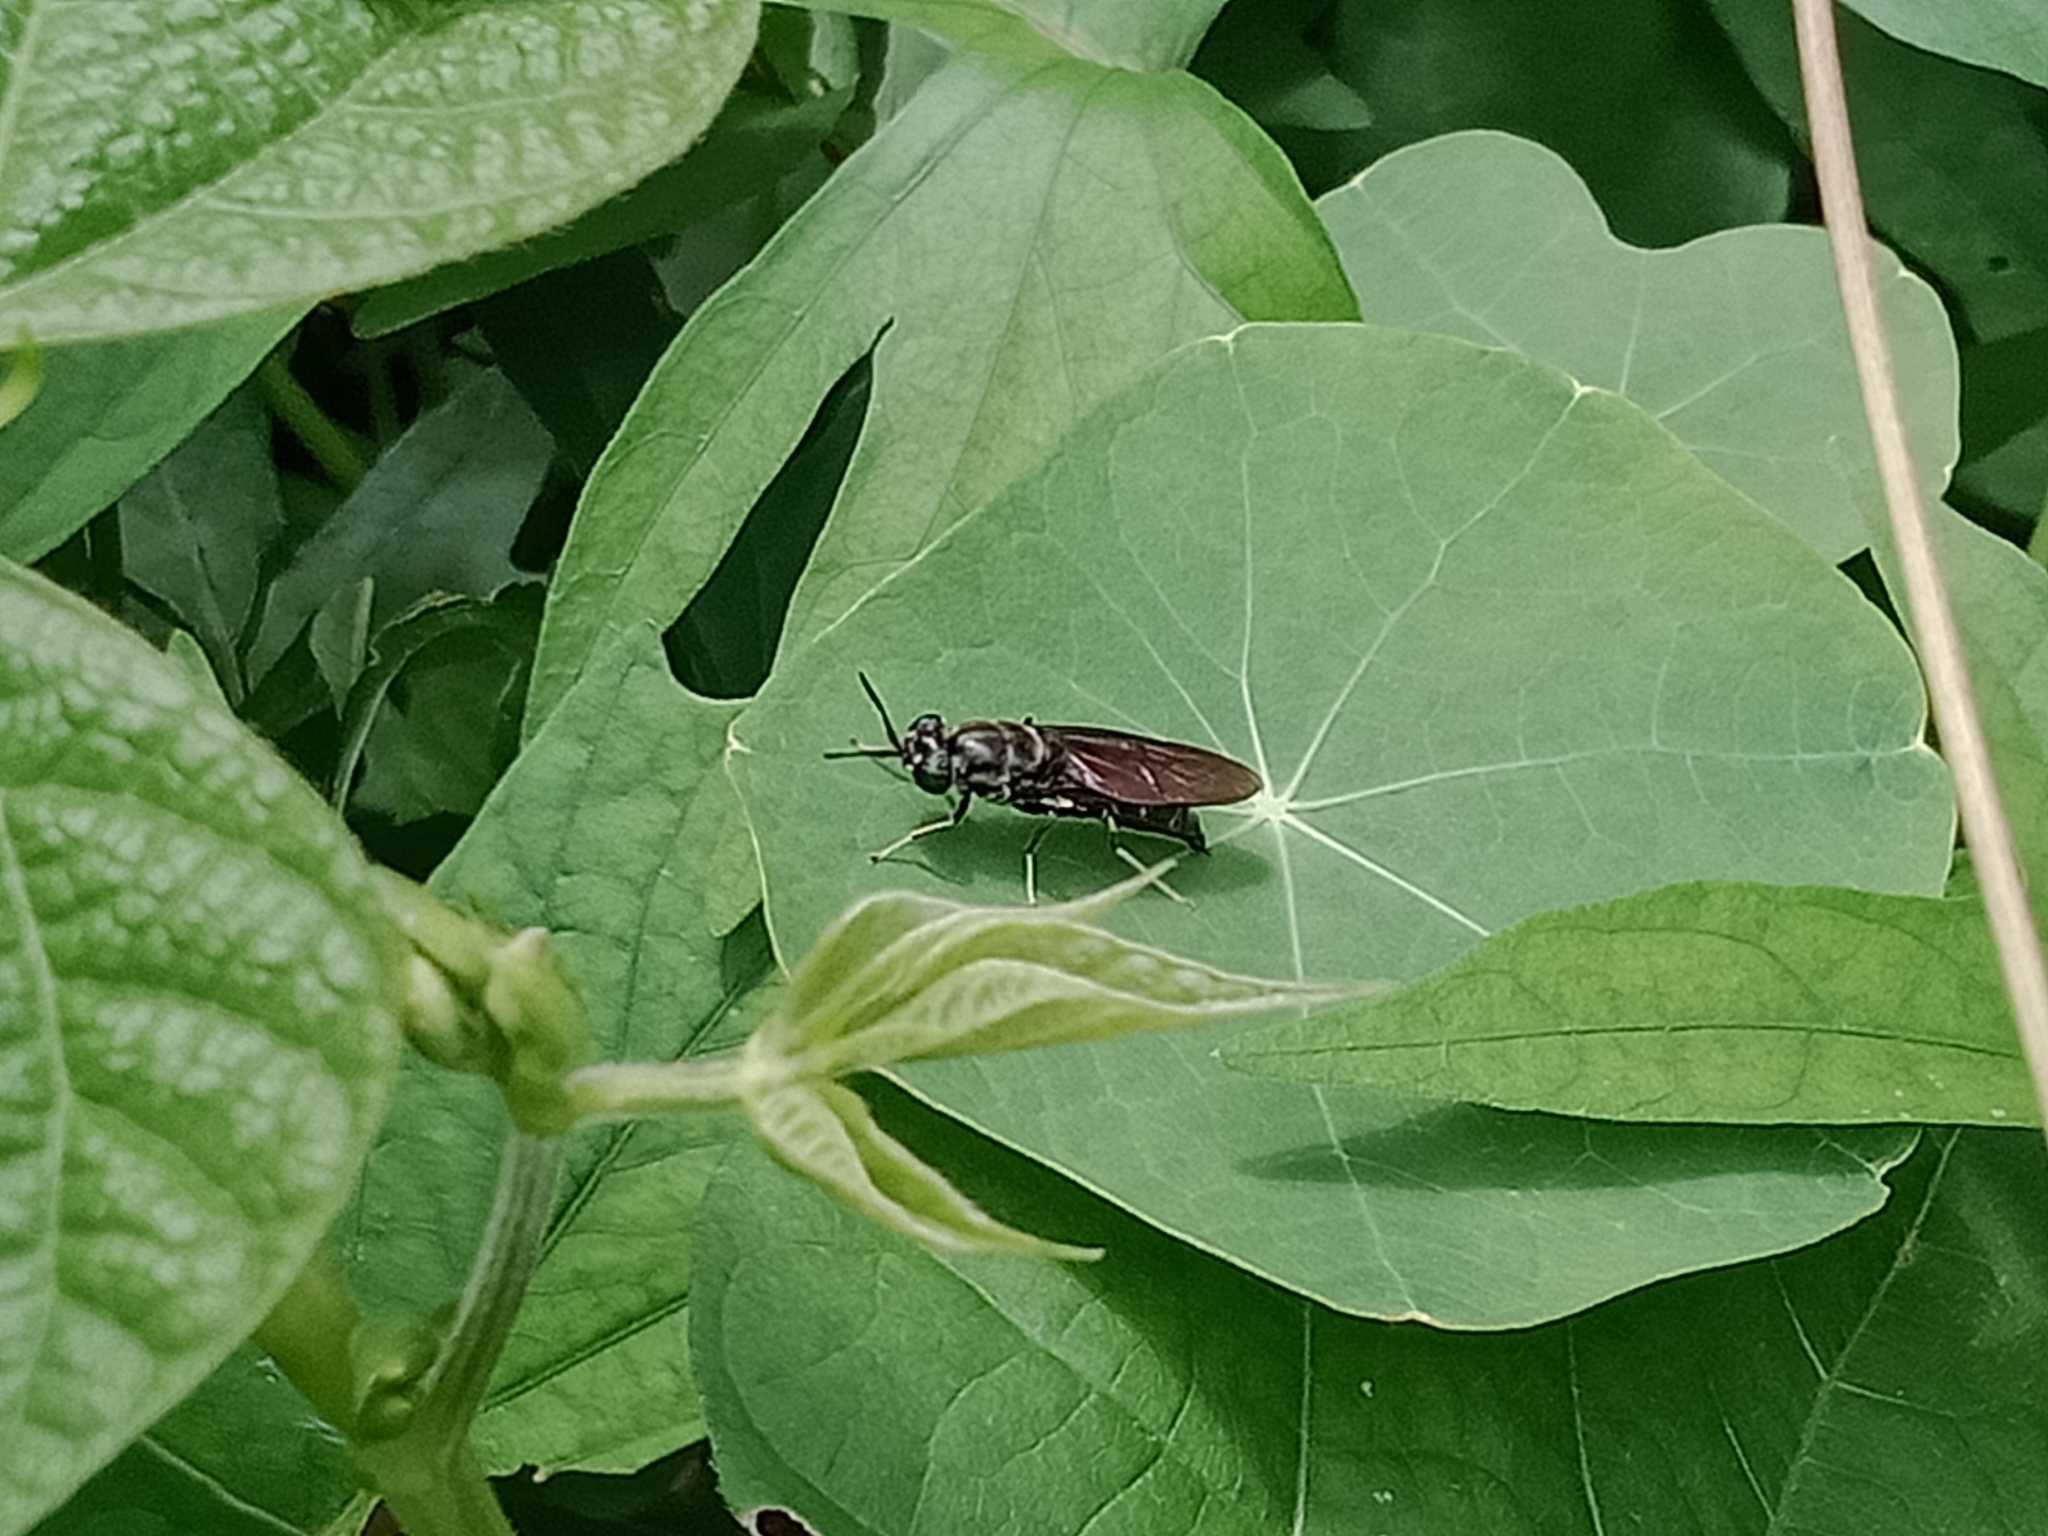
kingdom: Animalia
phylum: Arthropoda
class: Insecta
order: Diptera
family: Stratiomyidae
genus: Hermetia
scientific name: Hermetia illucens
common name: Black soldier fly
